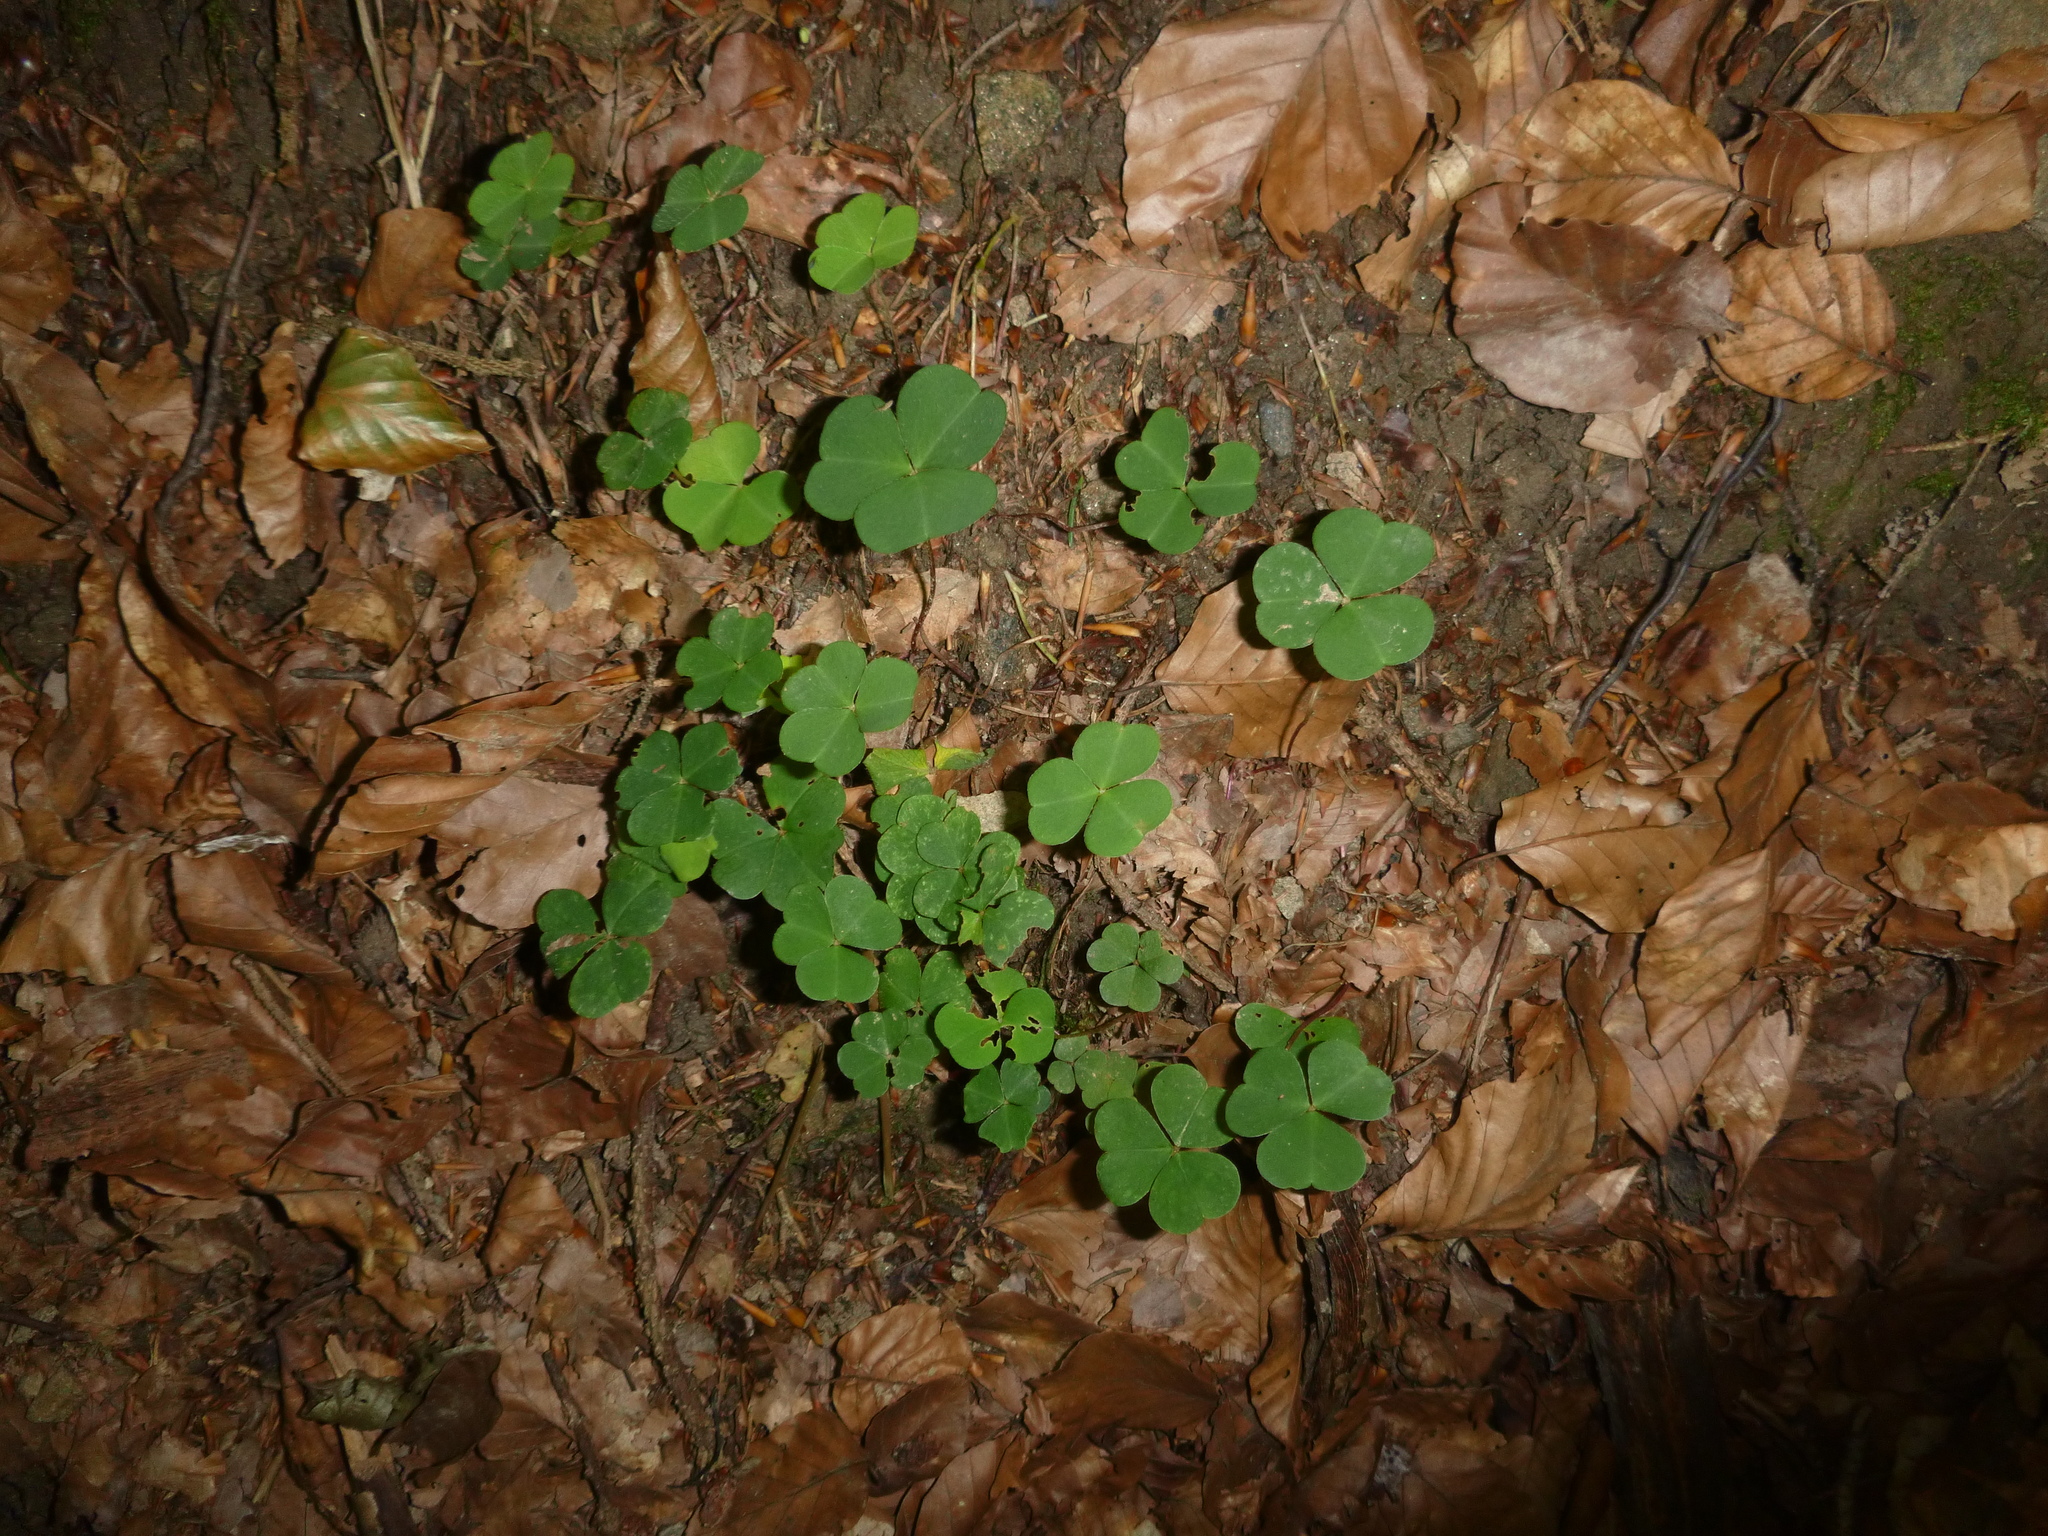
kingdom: Plantae
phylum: Tracheophyta
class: Magnoliopsida
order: Oxalidales
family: Oxalidaceae
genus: Oxalis
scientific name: Oxalis acetosella
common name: Wood-sorrel
